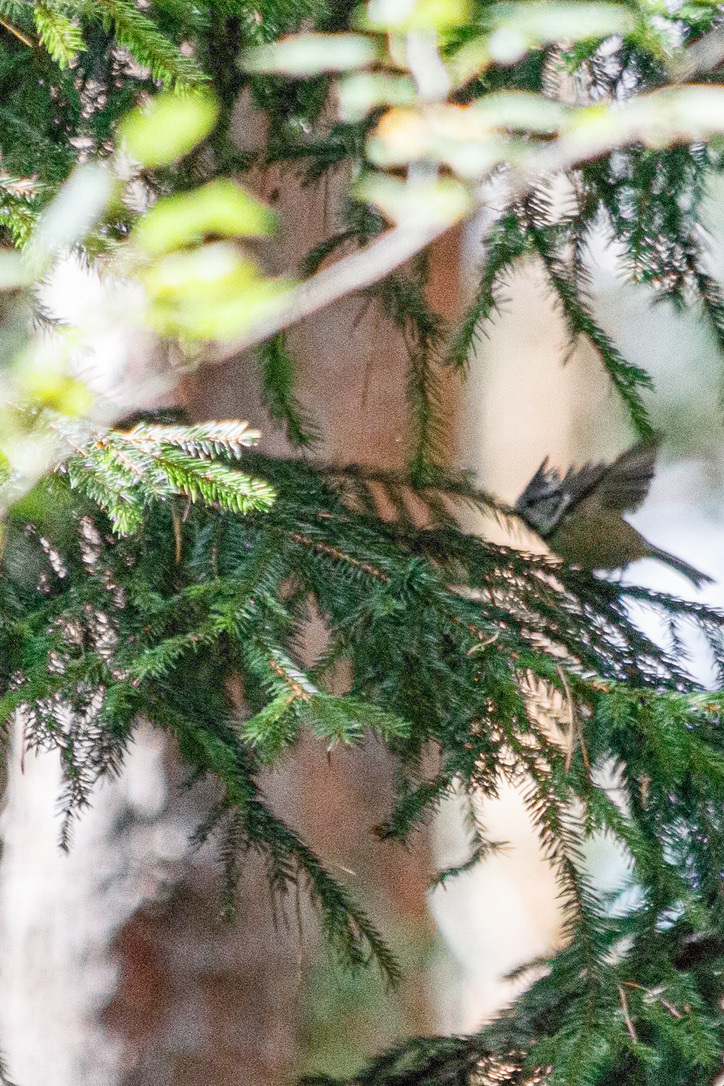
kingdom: Animalia
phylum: Chordata
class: Aves
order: Passeriformes
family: Paridae
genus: Lophophanes
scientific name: Lophophanes cristatus
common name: European crested tit
